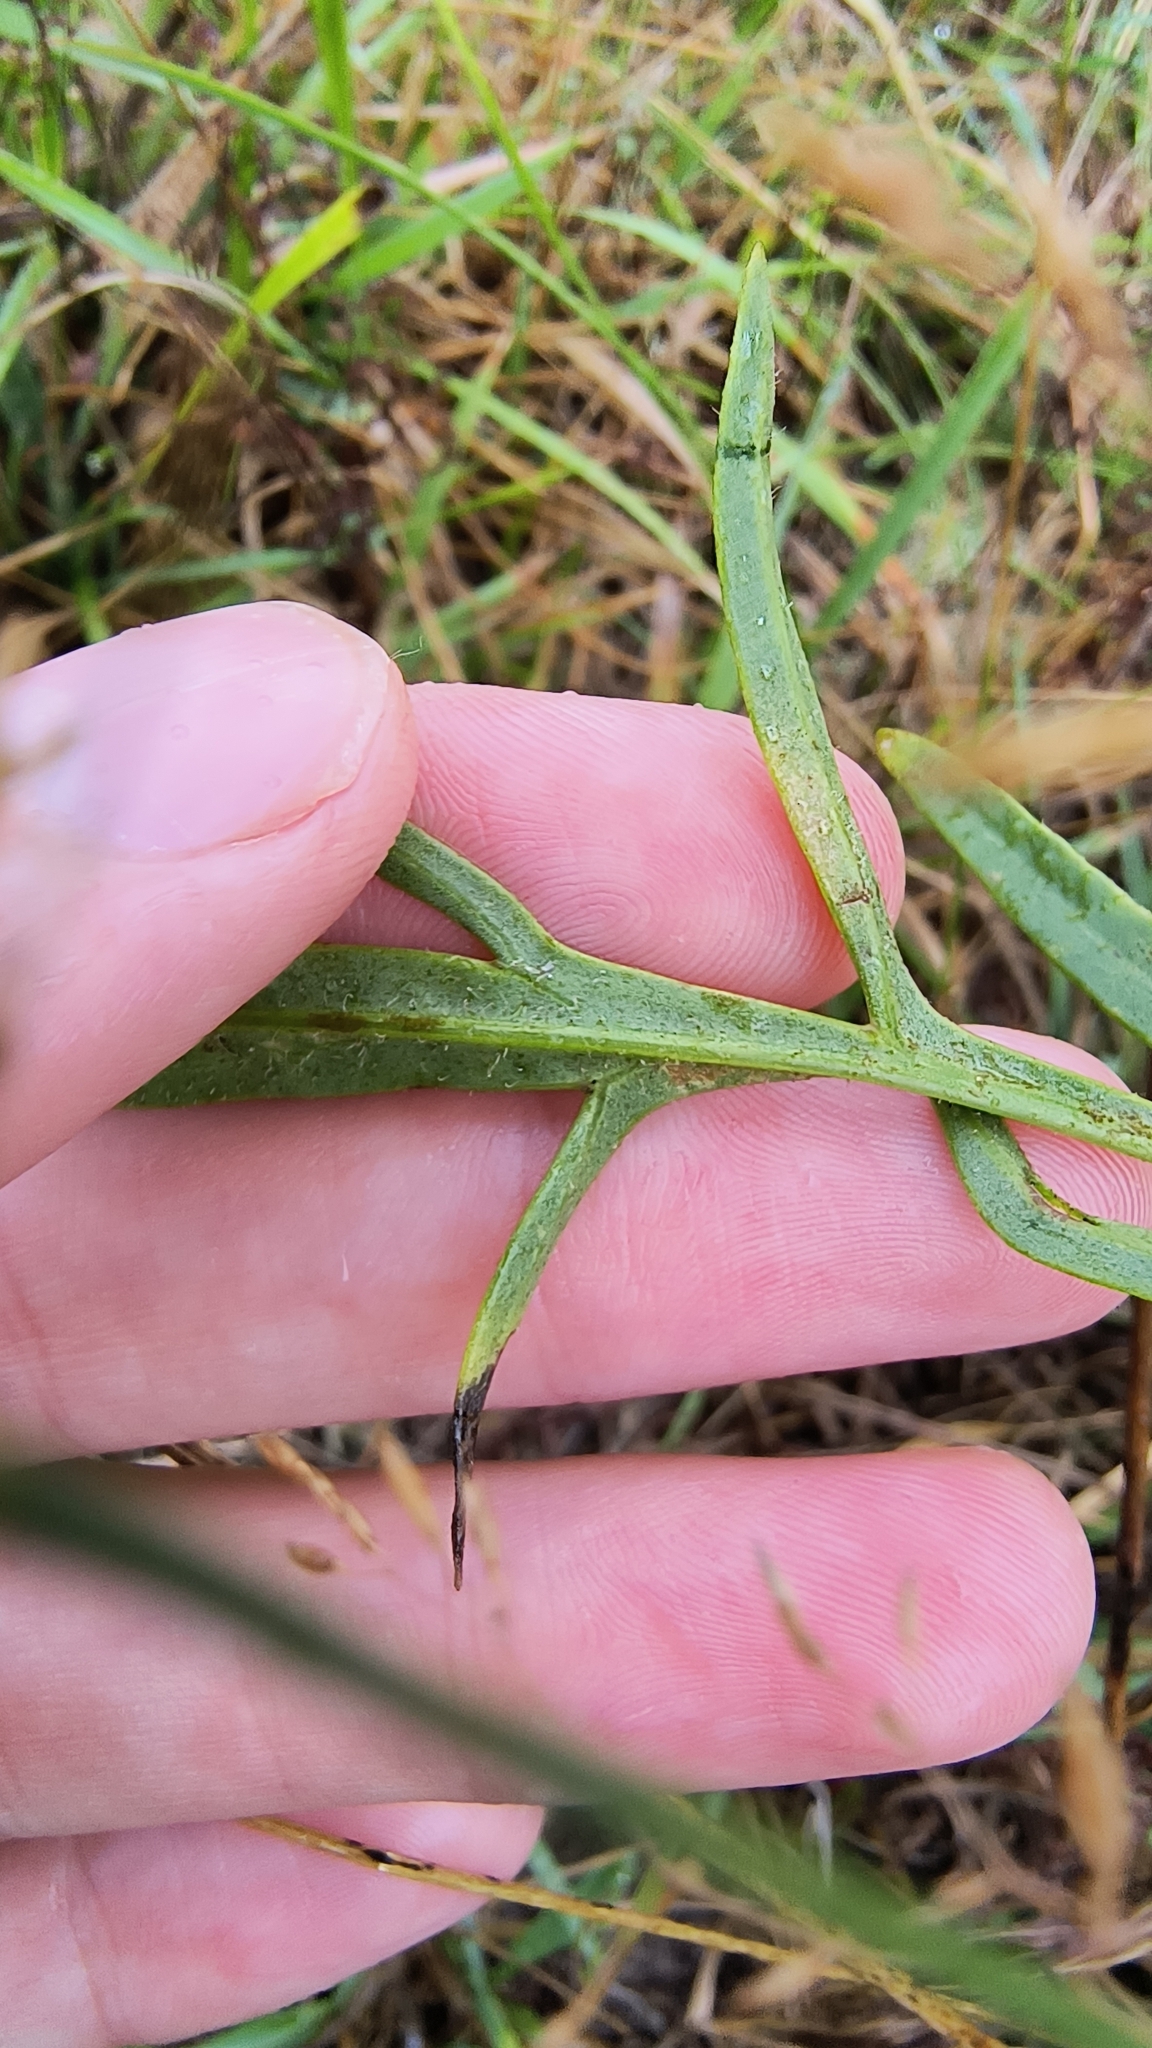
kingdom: Plantae
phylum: Tracheophyta
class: Magnoliopsida
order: Asterales
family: Asteraceae
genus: Coreopsis
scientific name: Coreopsis lanceolata
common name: Garden coreopsis
